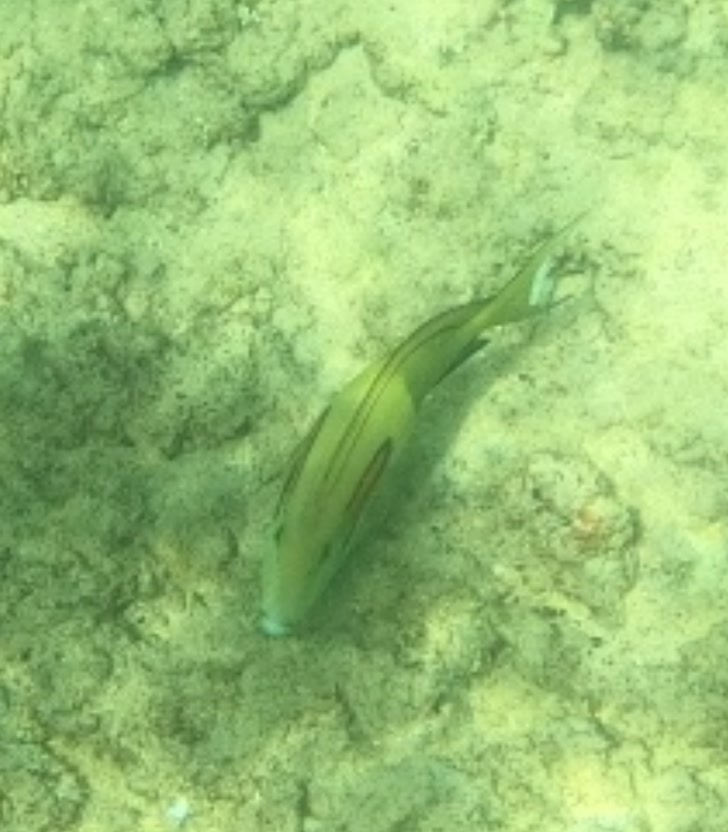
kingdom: Animalia
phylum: Chordata
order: Perciformes
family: Acanthuridae
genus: Acanthurus
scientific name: Acanthurus olivaceus
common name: Gendarme fish
